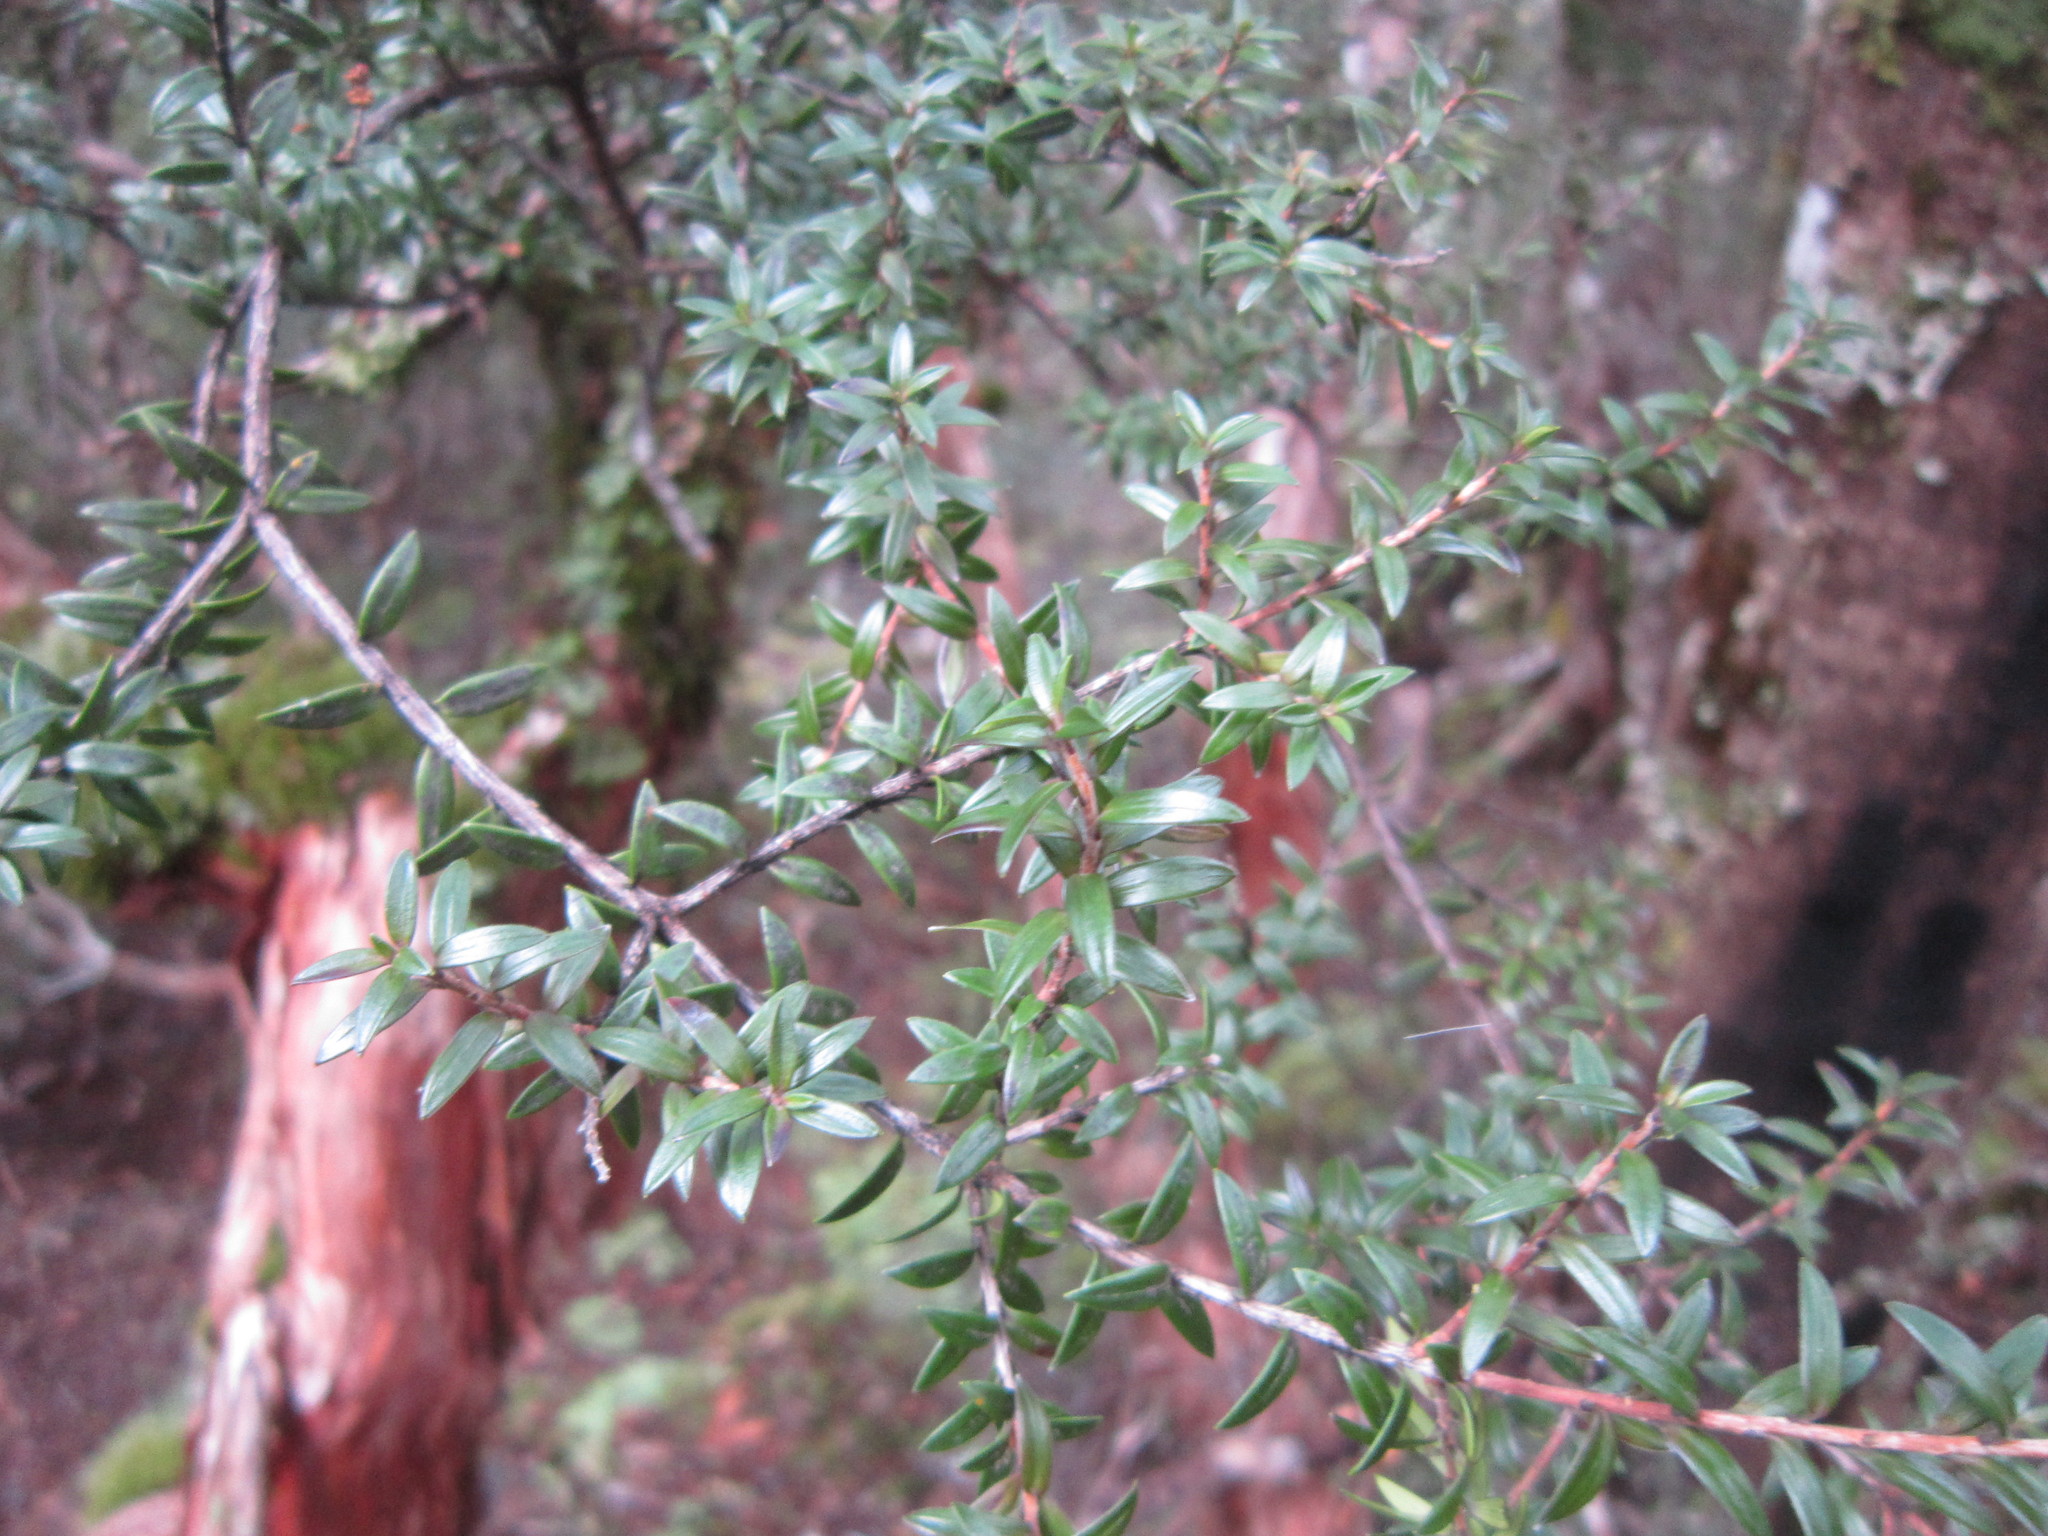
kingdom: Plantae
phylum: Tracheophyta
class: Magnoliopsida
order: Ericales
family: Ericaceae
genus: Archeria
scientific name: Archeria traversii
